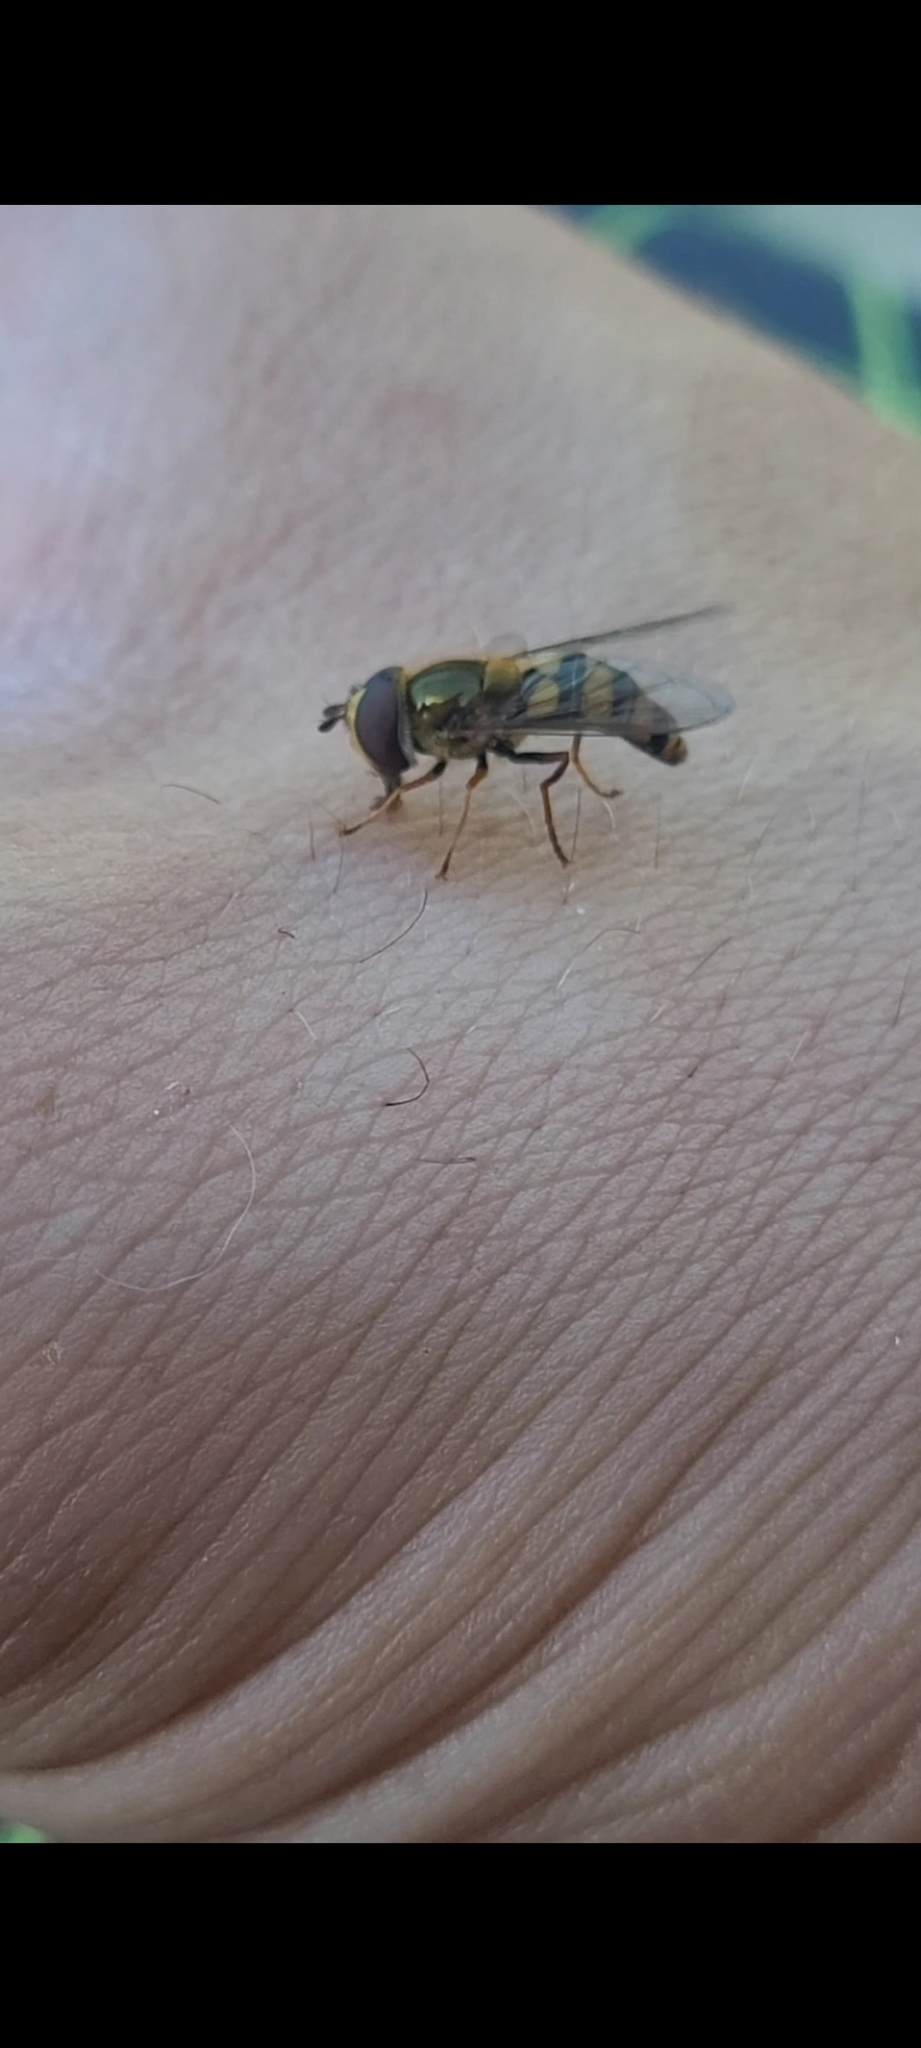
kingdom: Animalia
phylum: Arthropoda
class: Insecta
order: Diptera
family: Syrphidae
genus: Eupeodes
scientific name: Eupeodes
